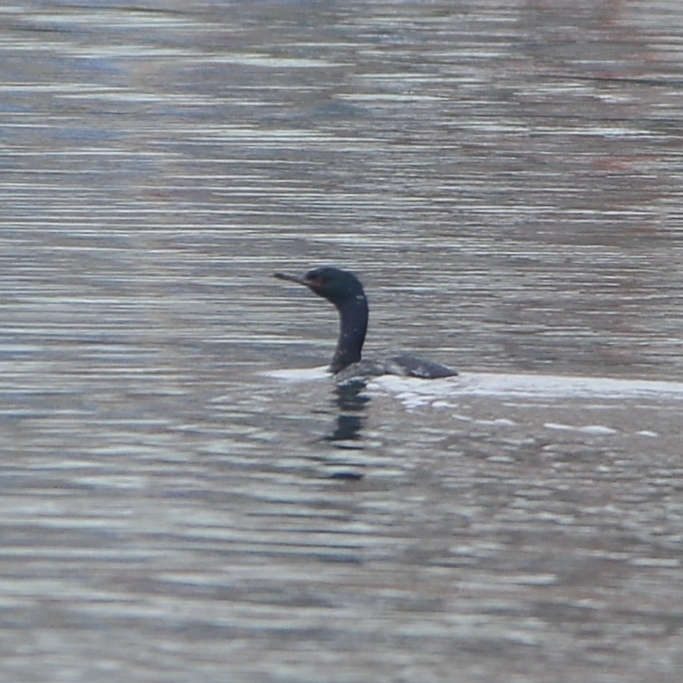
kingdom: Animalia
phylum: Chordata
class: Aves
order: Suliformes
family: Phalacrocoracidae
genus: Phalacrocorax
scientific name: Phalacrocorax pelagicus
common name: Pelagic cormorant
